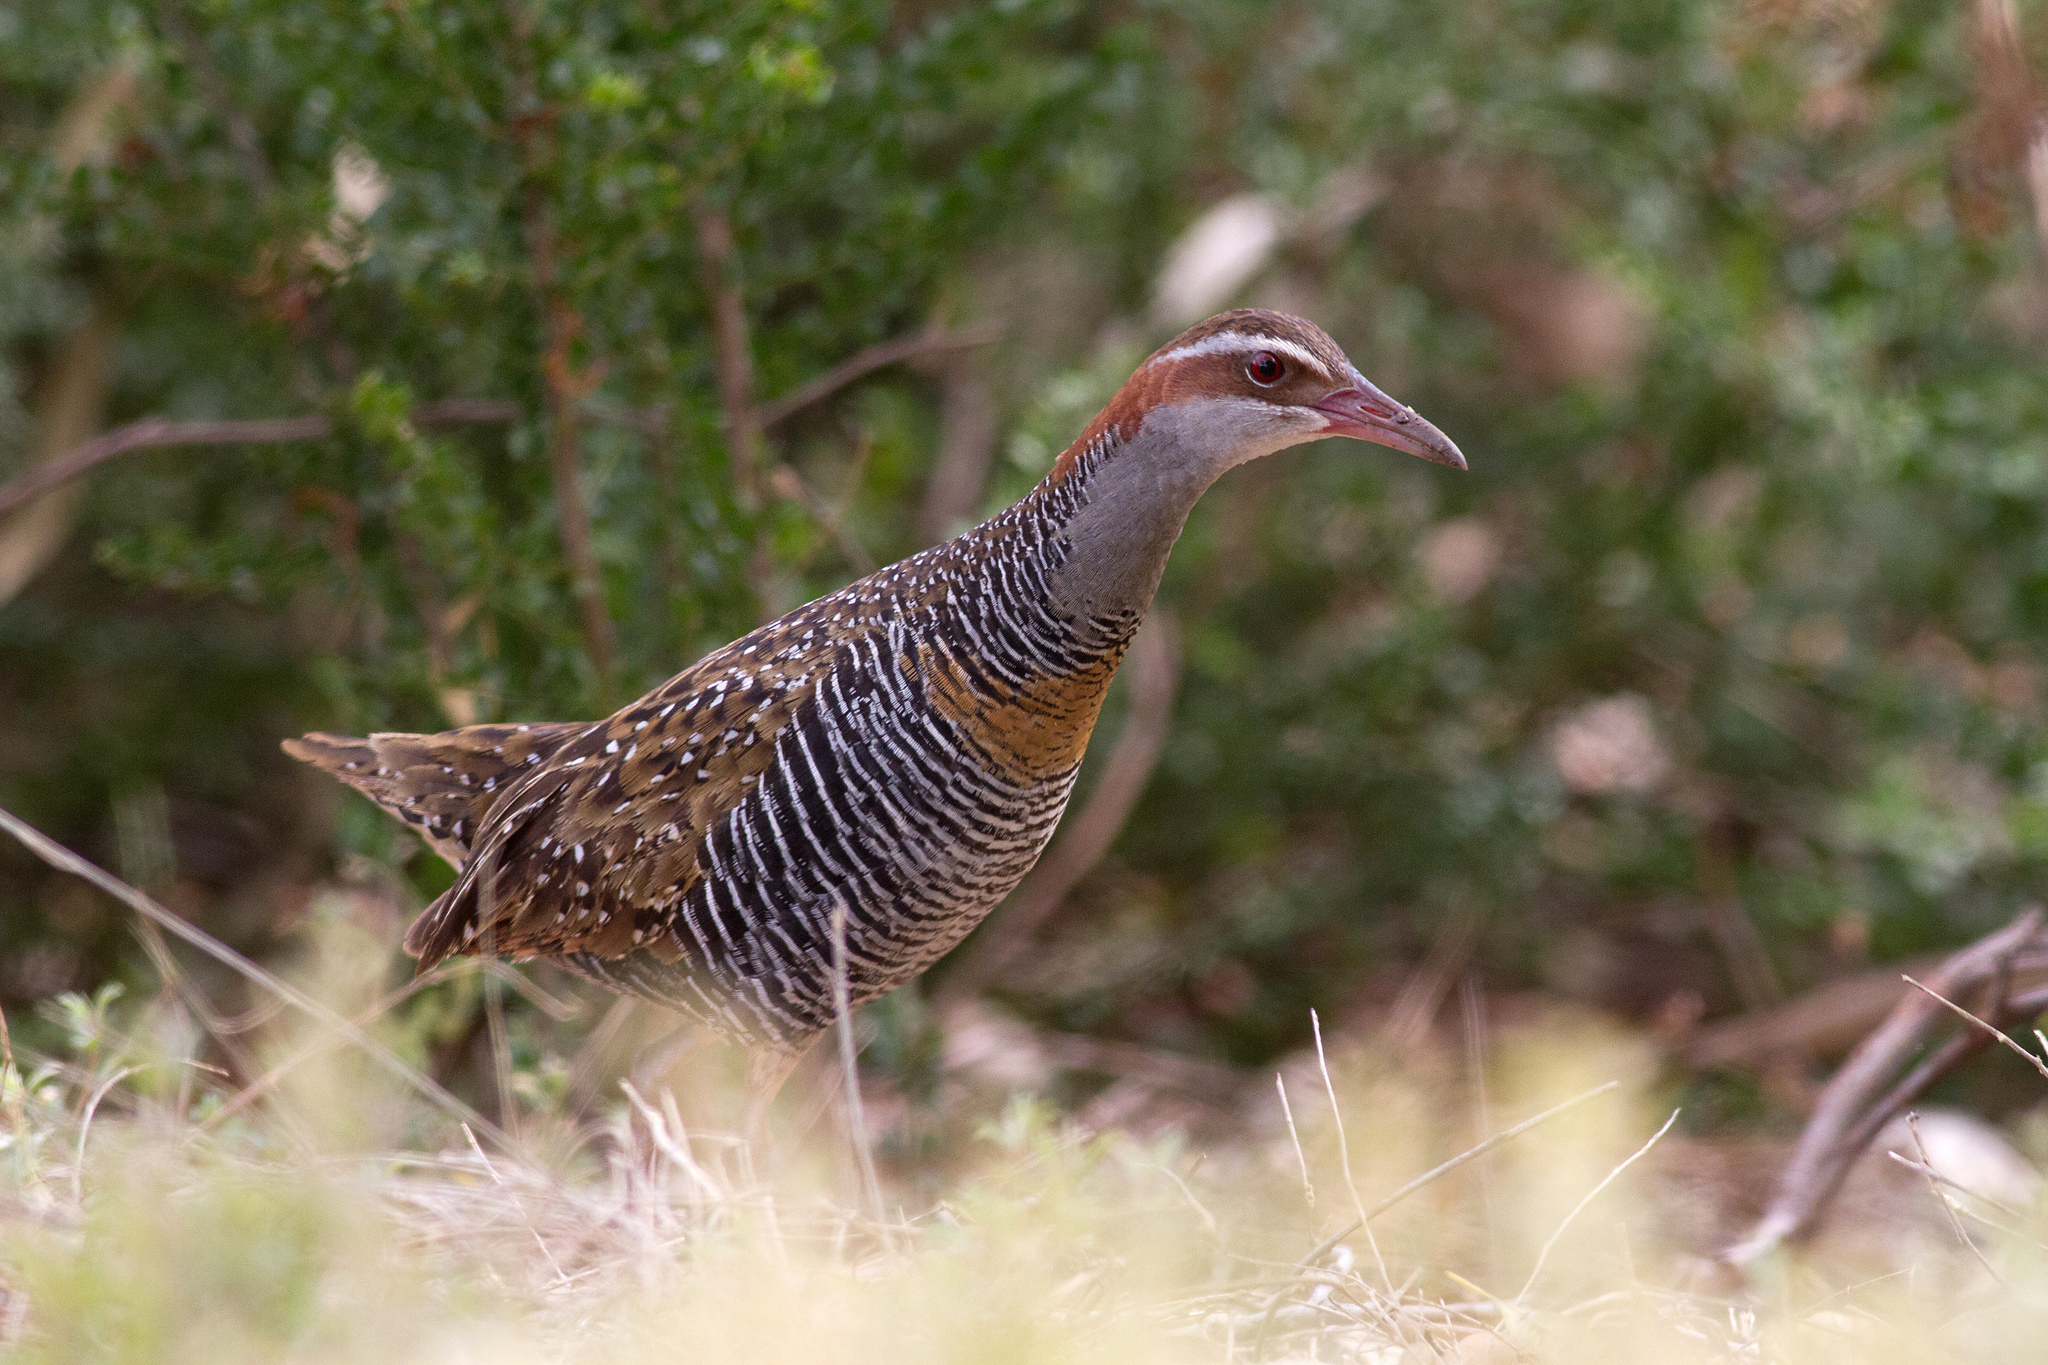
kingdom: Animalia
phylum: Chordata
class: Aves
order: Gruiformes
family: Rallidae
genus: Gallirallus
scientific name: Gallirallus philippensis
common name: Buff-banded rail
